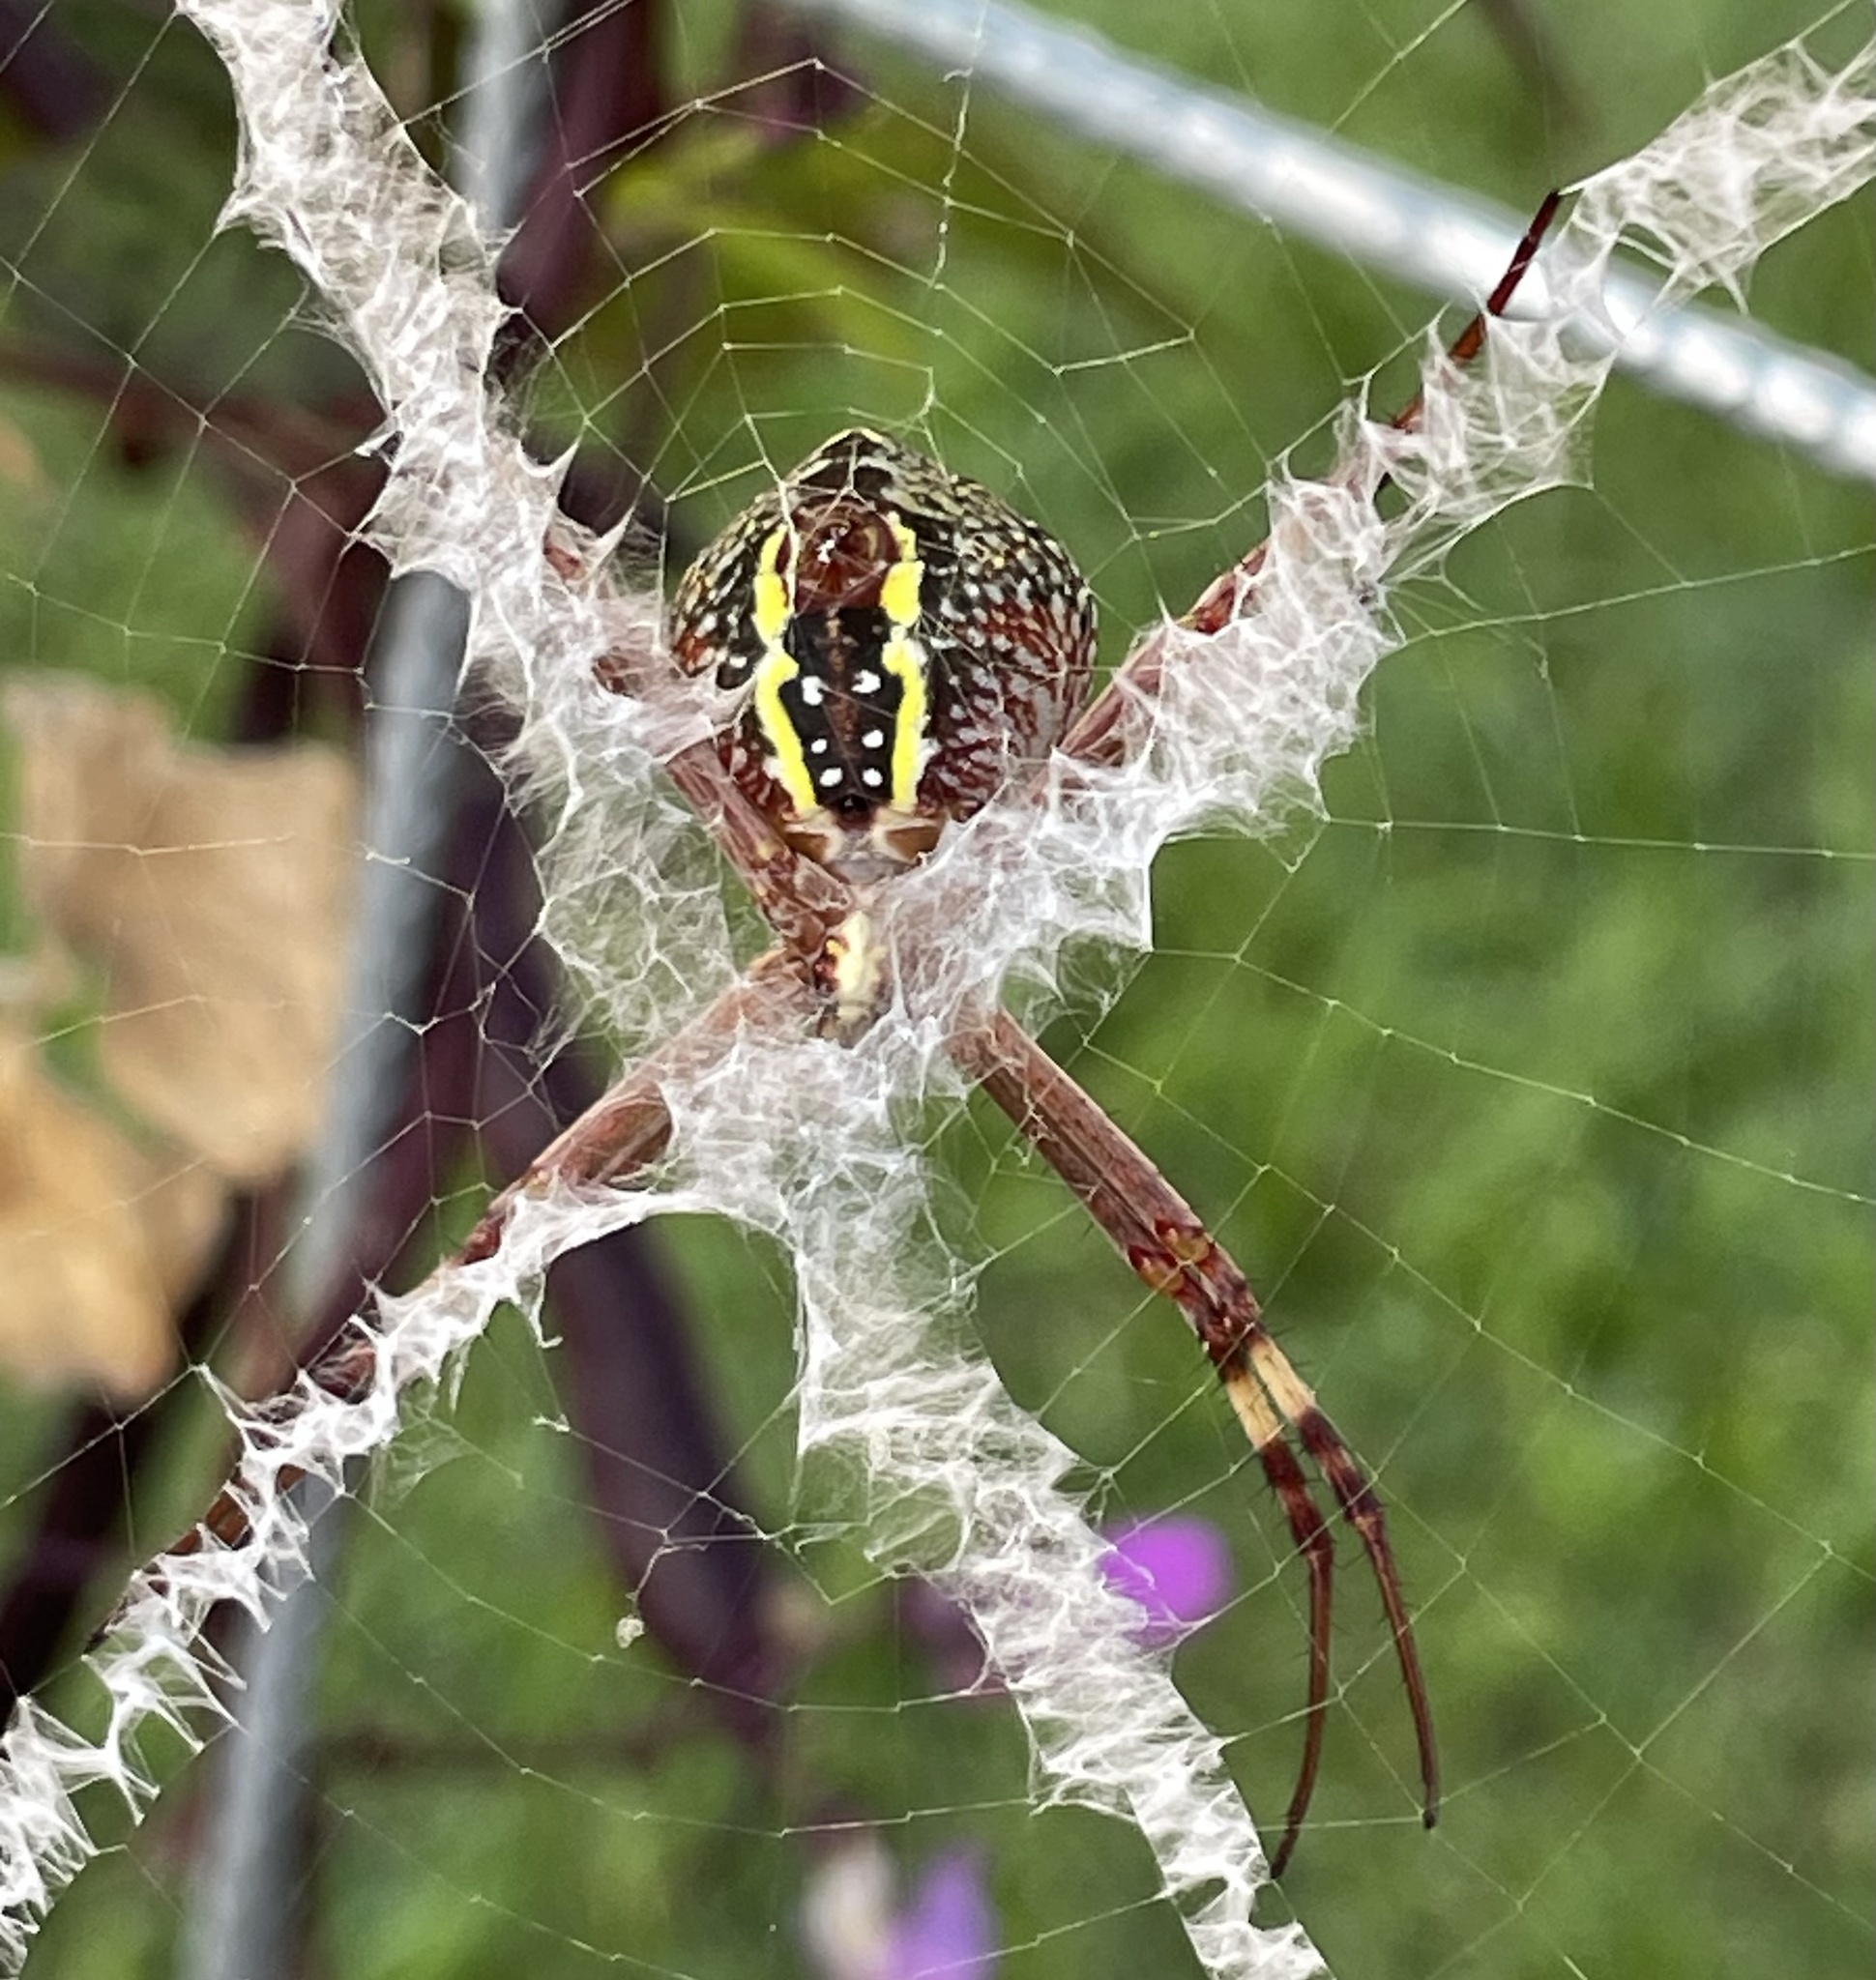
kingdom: Animalia
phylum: Arthropoda
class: Arachnida
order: Araneae
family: Araneidae
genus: Argiope
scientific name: Argiope keyserlingi
